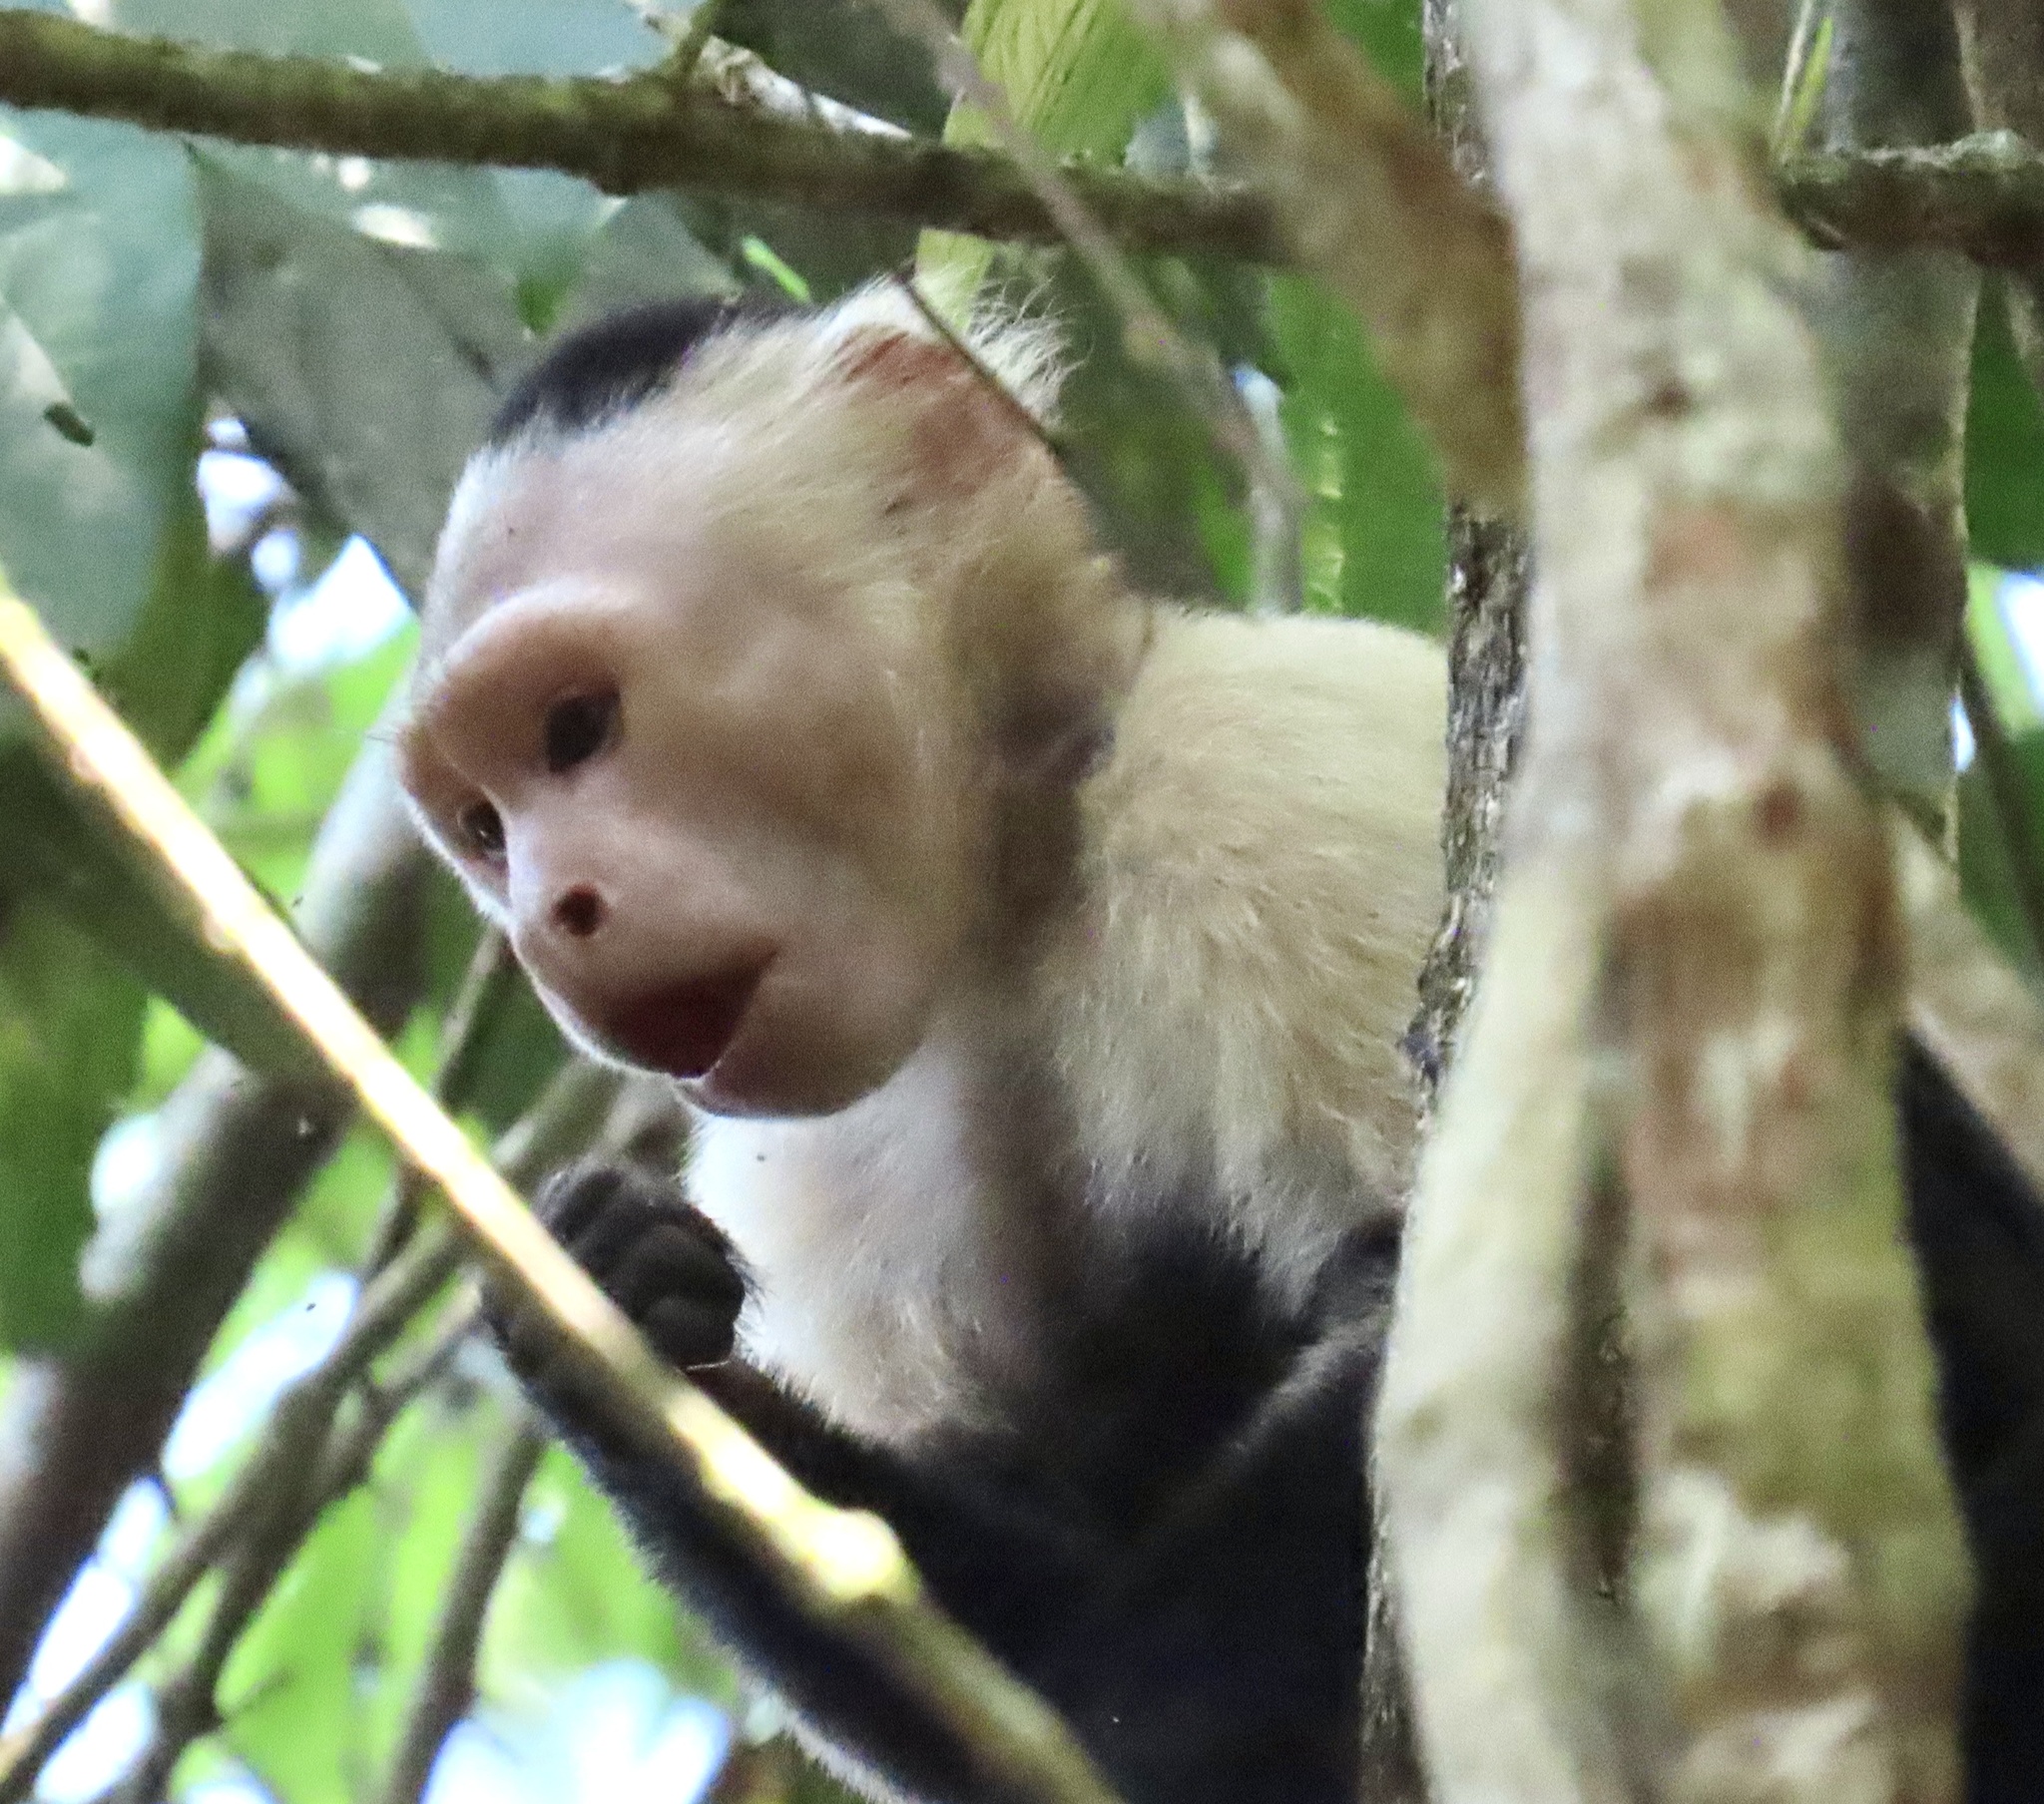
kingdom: Animalia
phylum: Chordata
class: Mammalia
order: Primates
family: Cebidae
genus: Cebus
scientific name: Cebus imitator
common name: Panamanian white-faced capuchin
